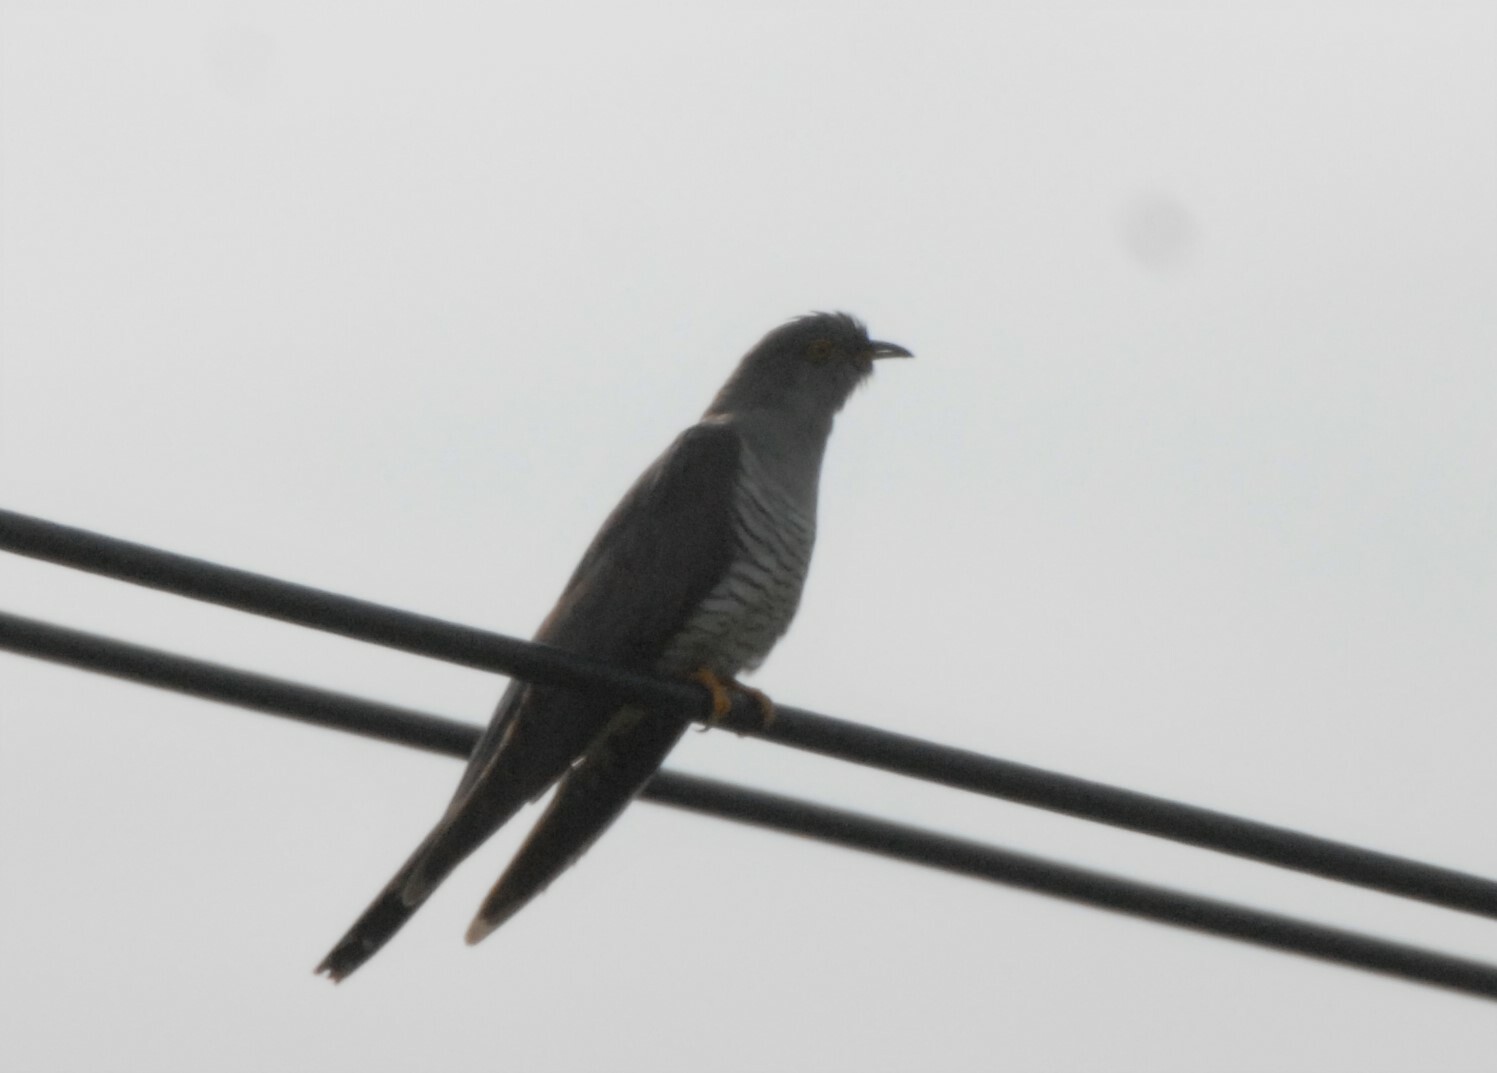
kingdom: Animalia
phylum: Chordata
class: Aves
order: Cuculiformes
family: Cuculidae
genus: Cuculus
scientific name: Cuculus canorus
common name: Common cuckoo
